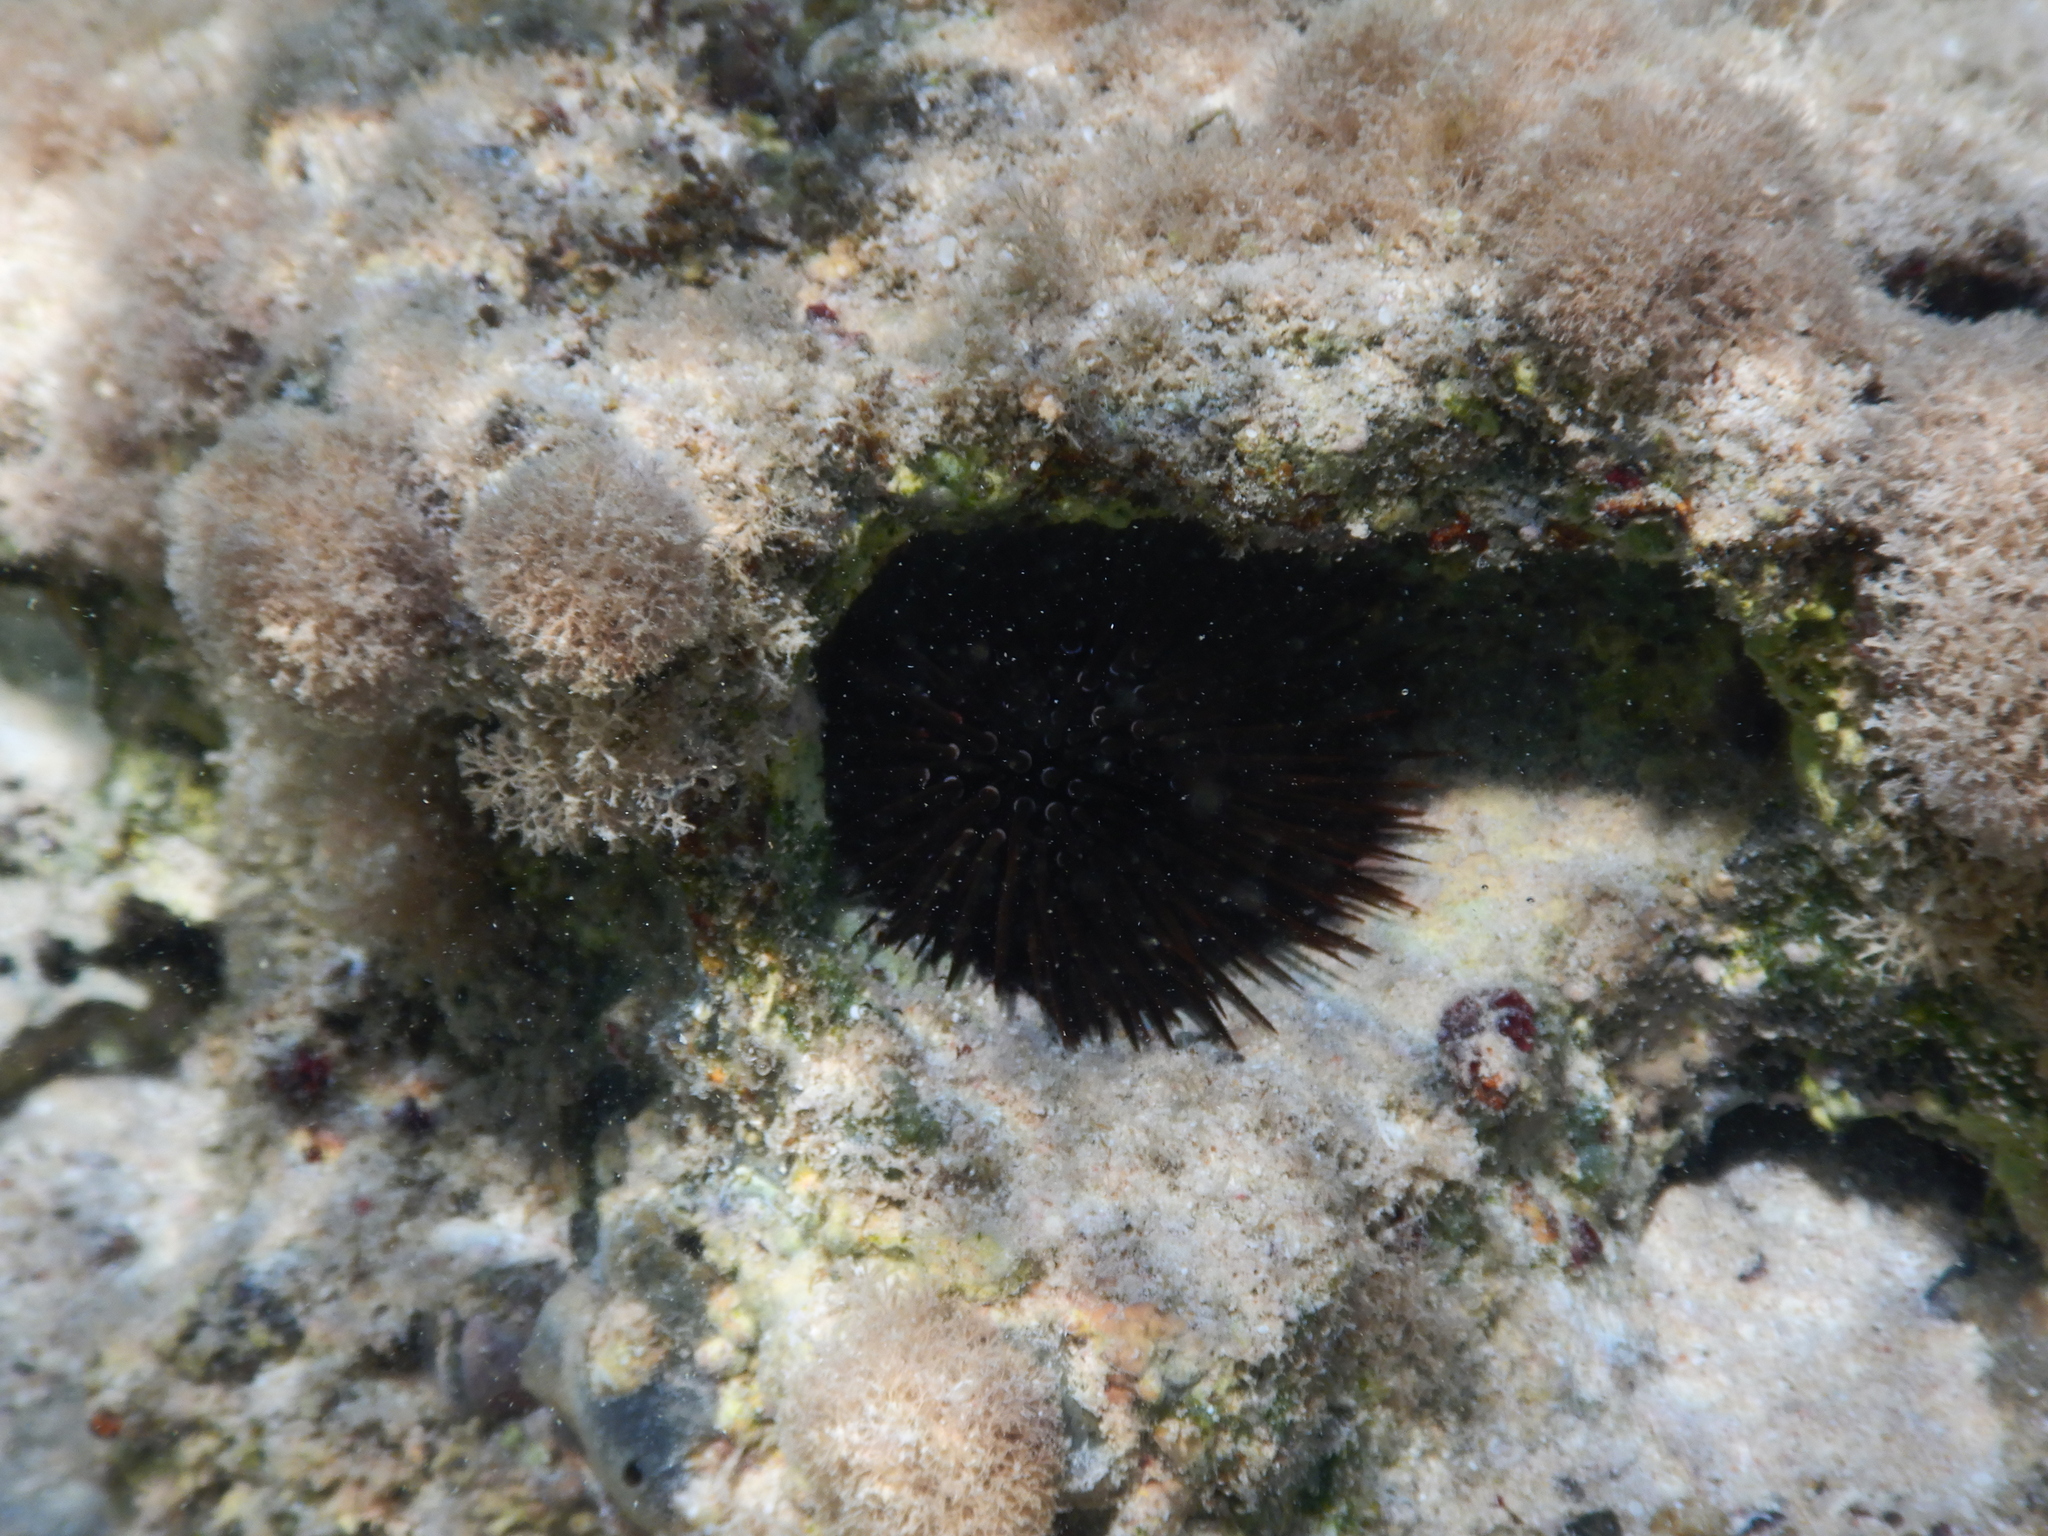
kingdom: Animalia
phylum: Echinodermata
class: Echinoidea
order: Camarodonta
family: Echinometridae
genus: Echinometra
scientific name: Echinometra mathaei
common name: Rock-boring urchin
